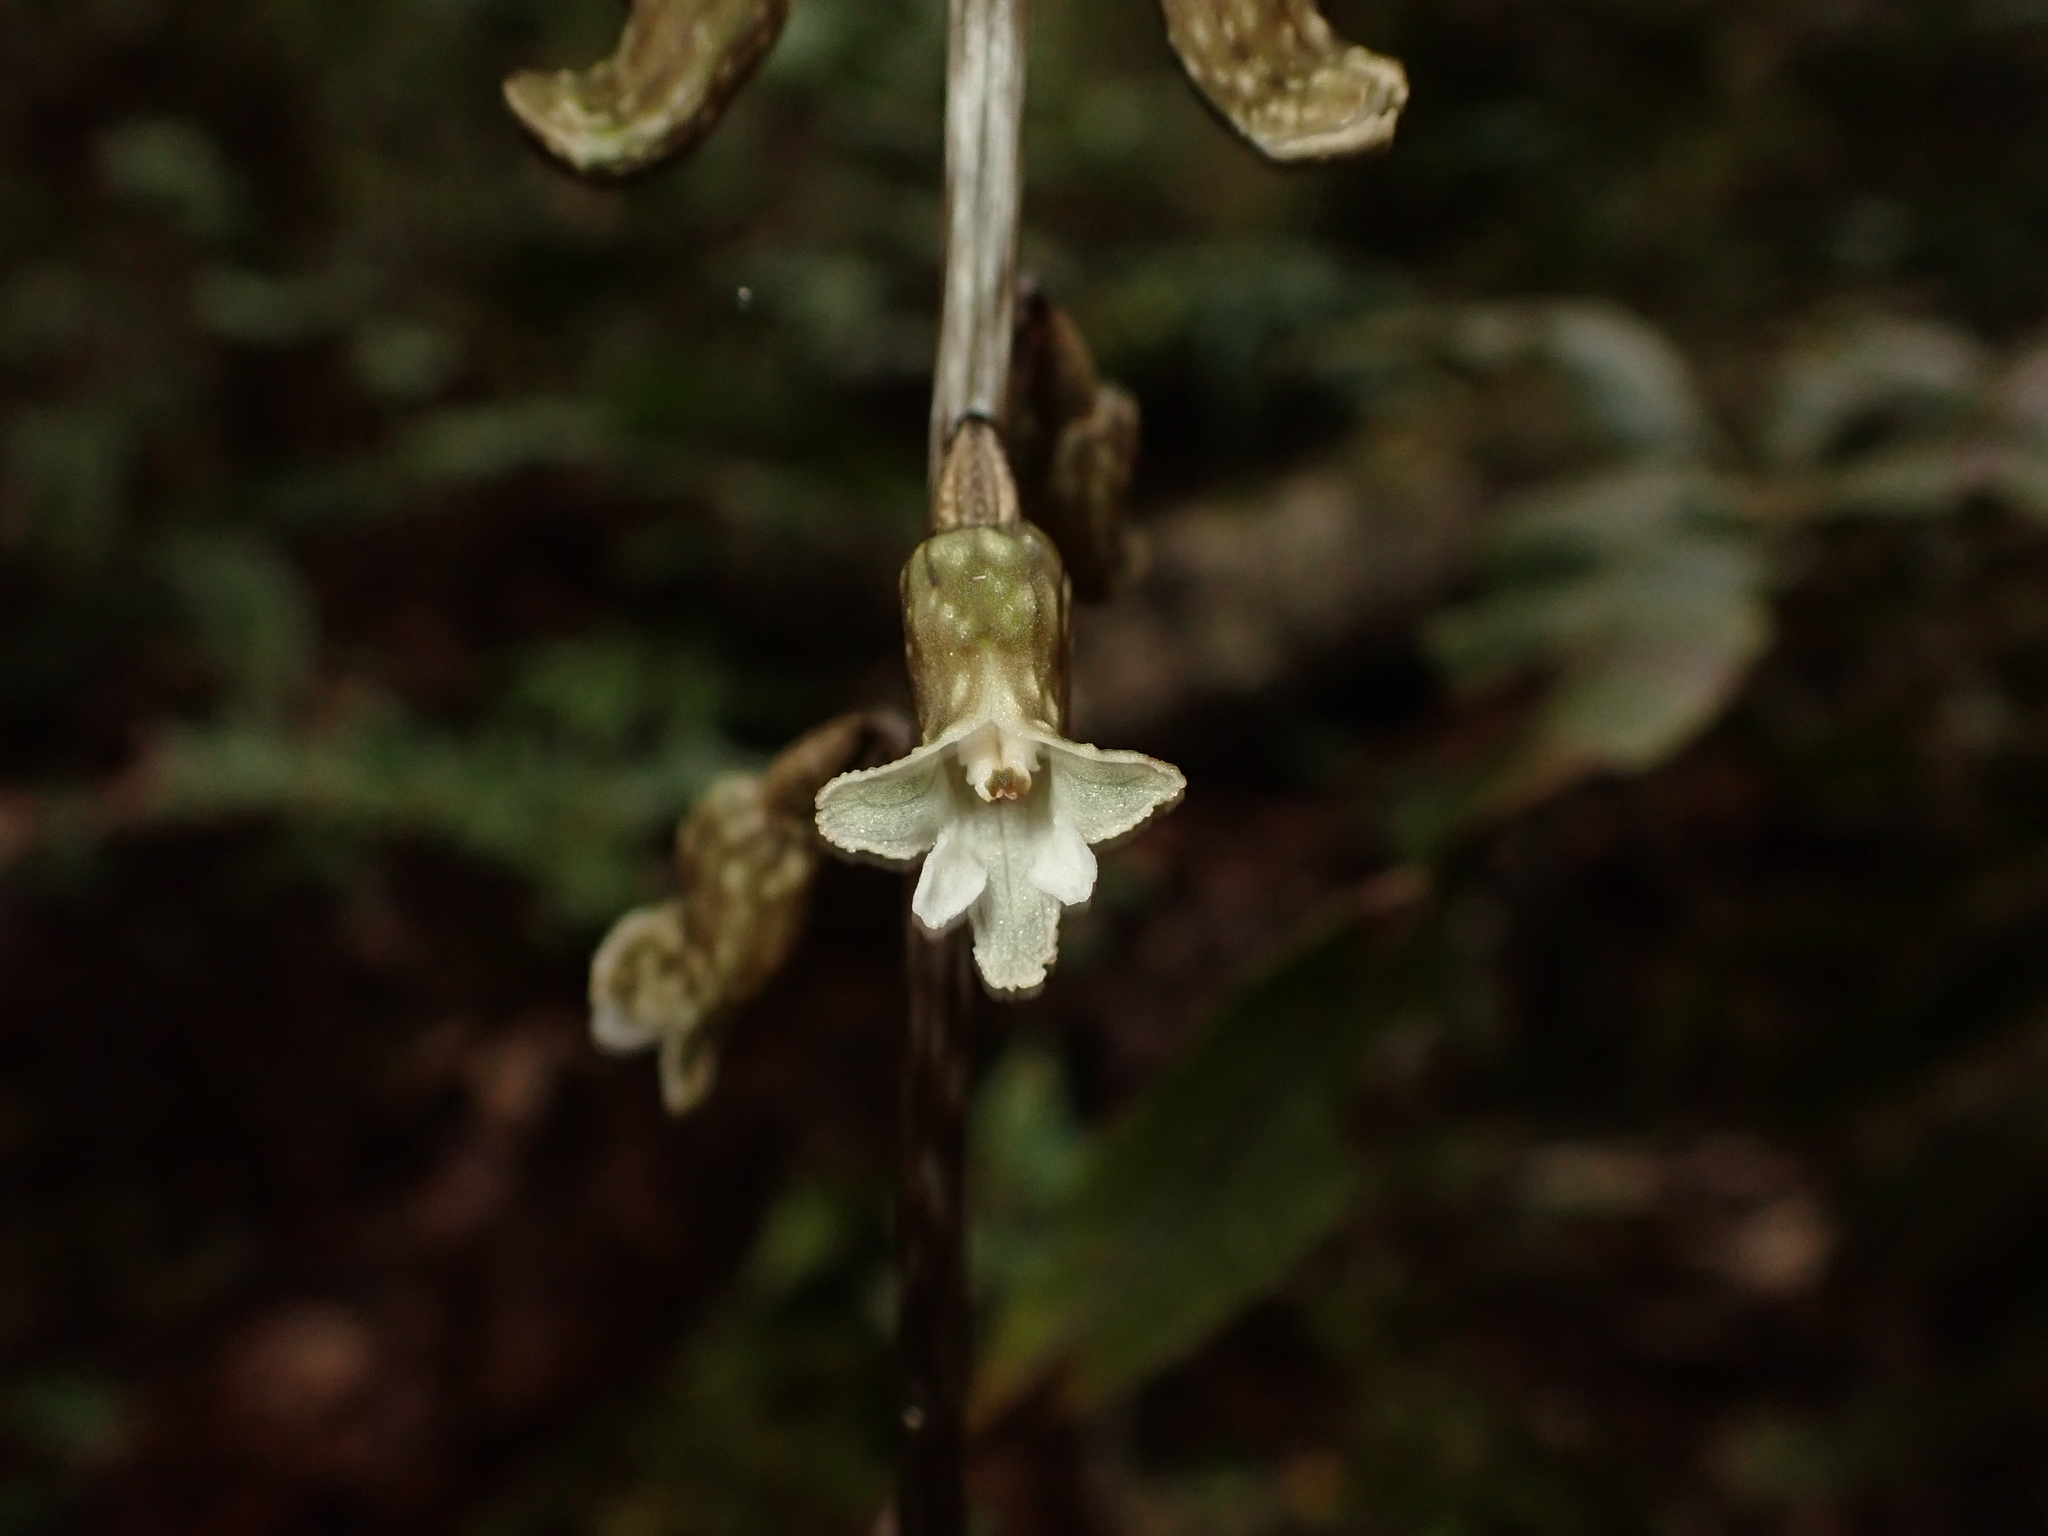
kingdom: Plantae
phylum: Tracheophyta
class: Liliopsida
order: Asparagales
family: Orchidaceae
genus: Gastrodia
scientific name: Gastrodia cunninghamii
